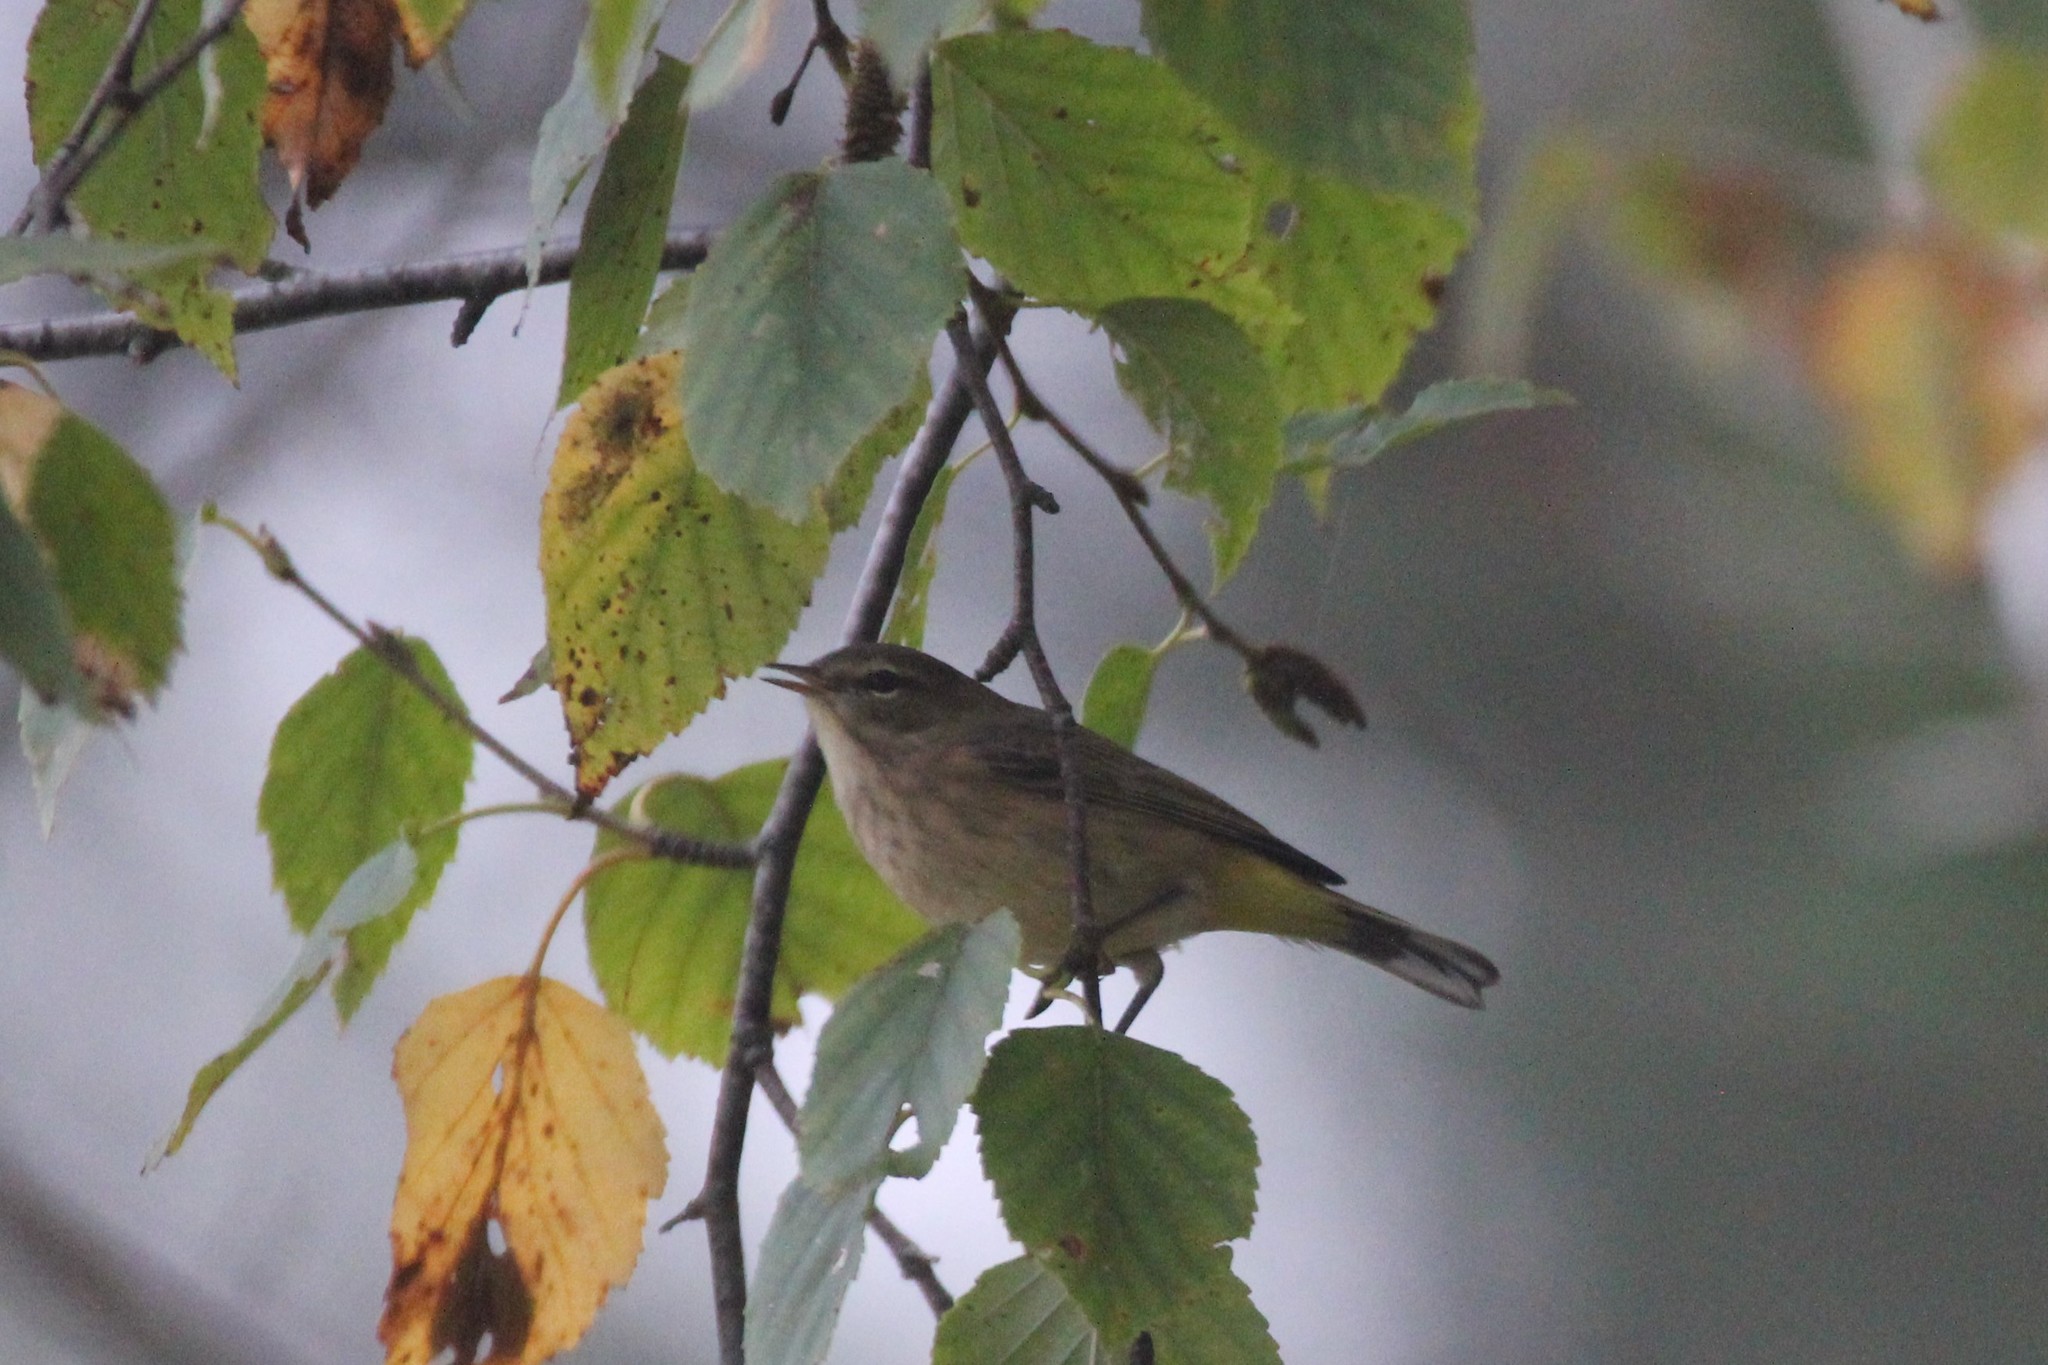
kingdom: Animalia
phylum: Chordata
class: Aves
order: Passeriformes
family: Parulidae
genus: Setophaga
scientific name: Setophaga palmarum
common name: Palm warbler
